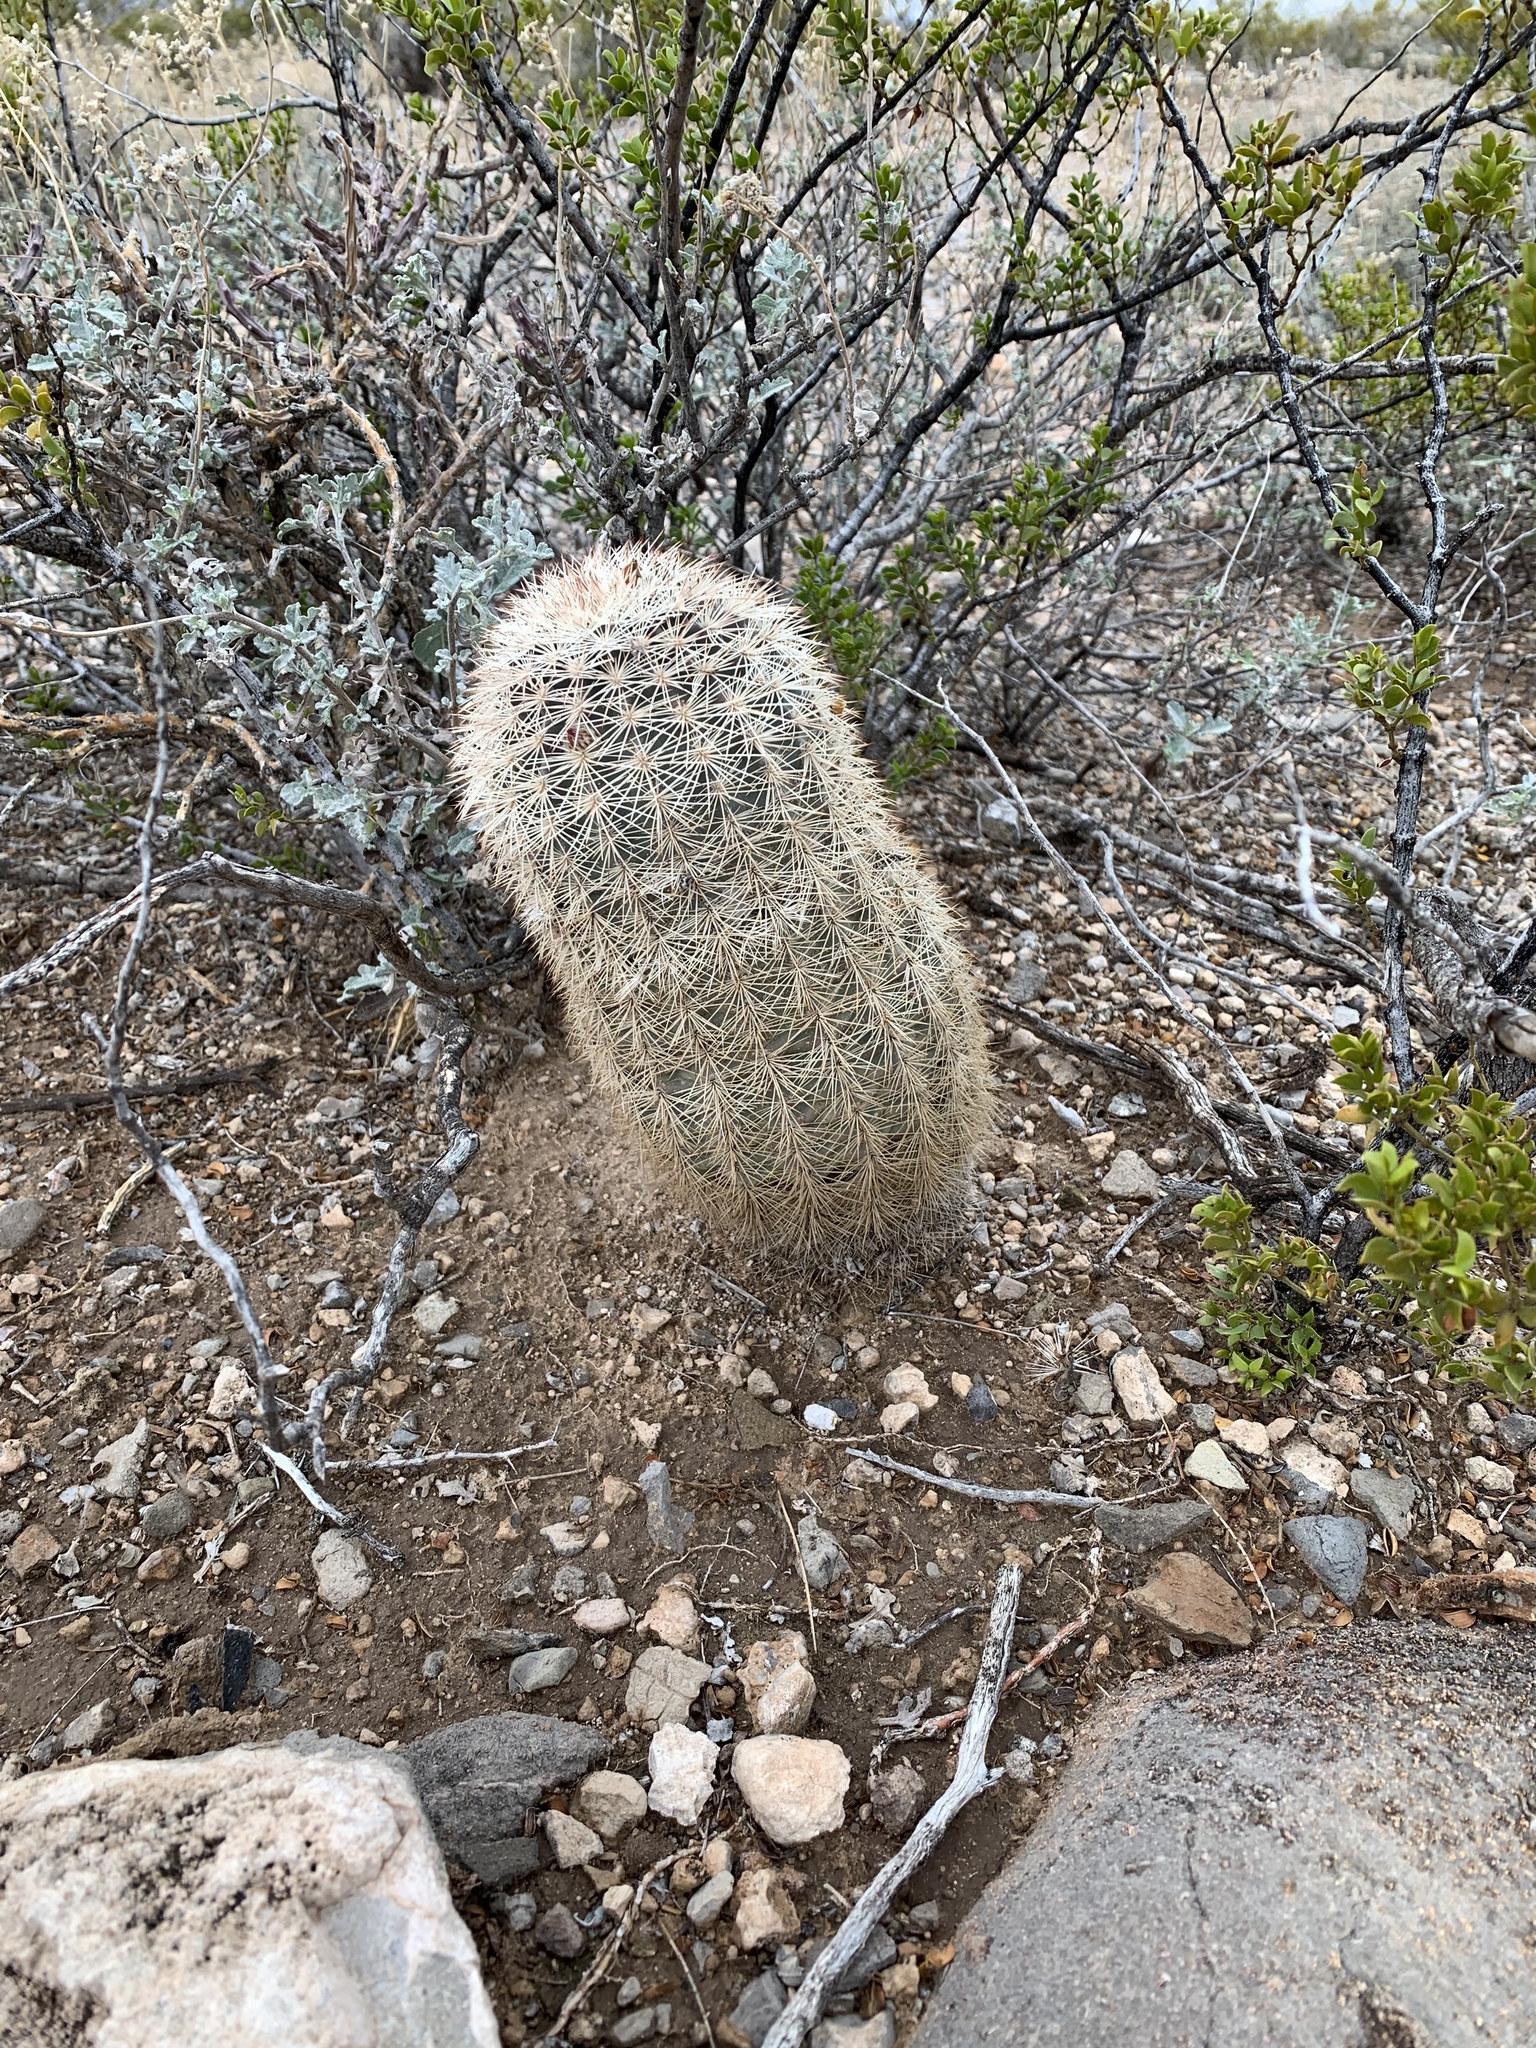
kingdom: Plantae
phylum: Tracheophyta
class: Magnoliopsida
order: Caryophyllales
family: Cactaceae
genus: Echinocereus
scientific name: Echinocereus dasyacanthus
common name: Spiny hedgehog cactus
